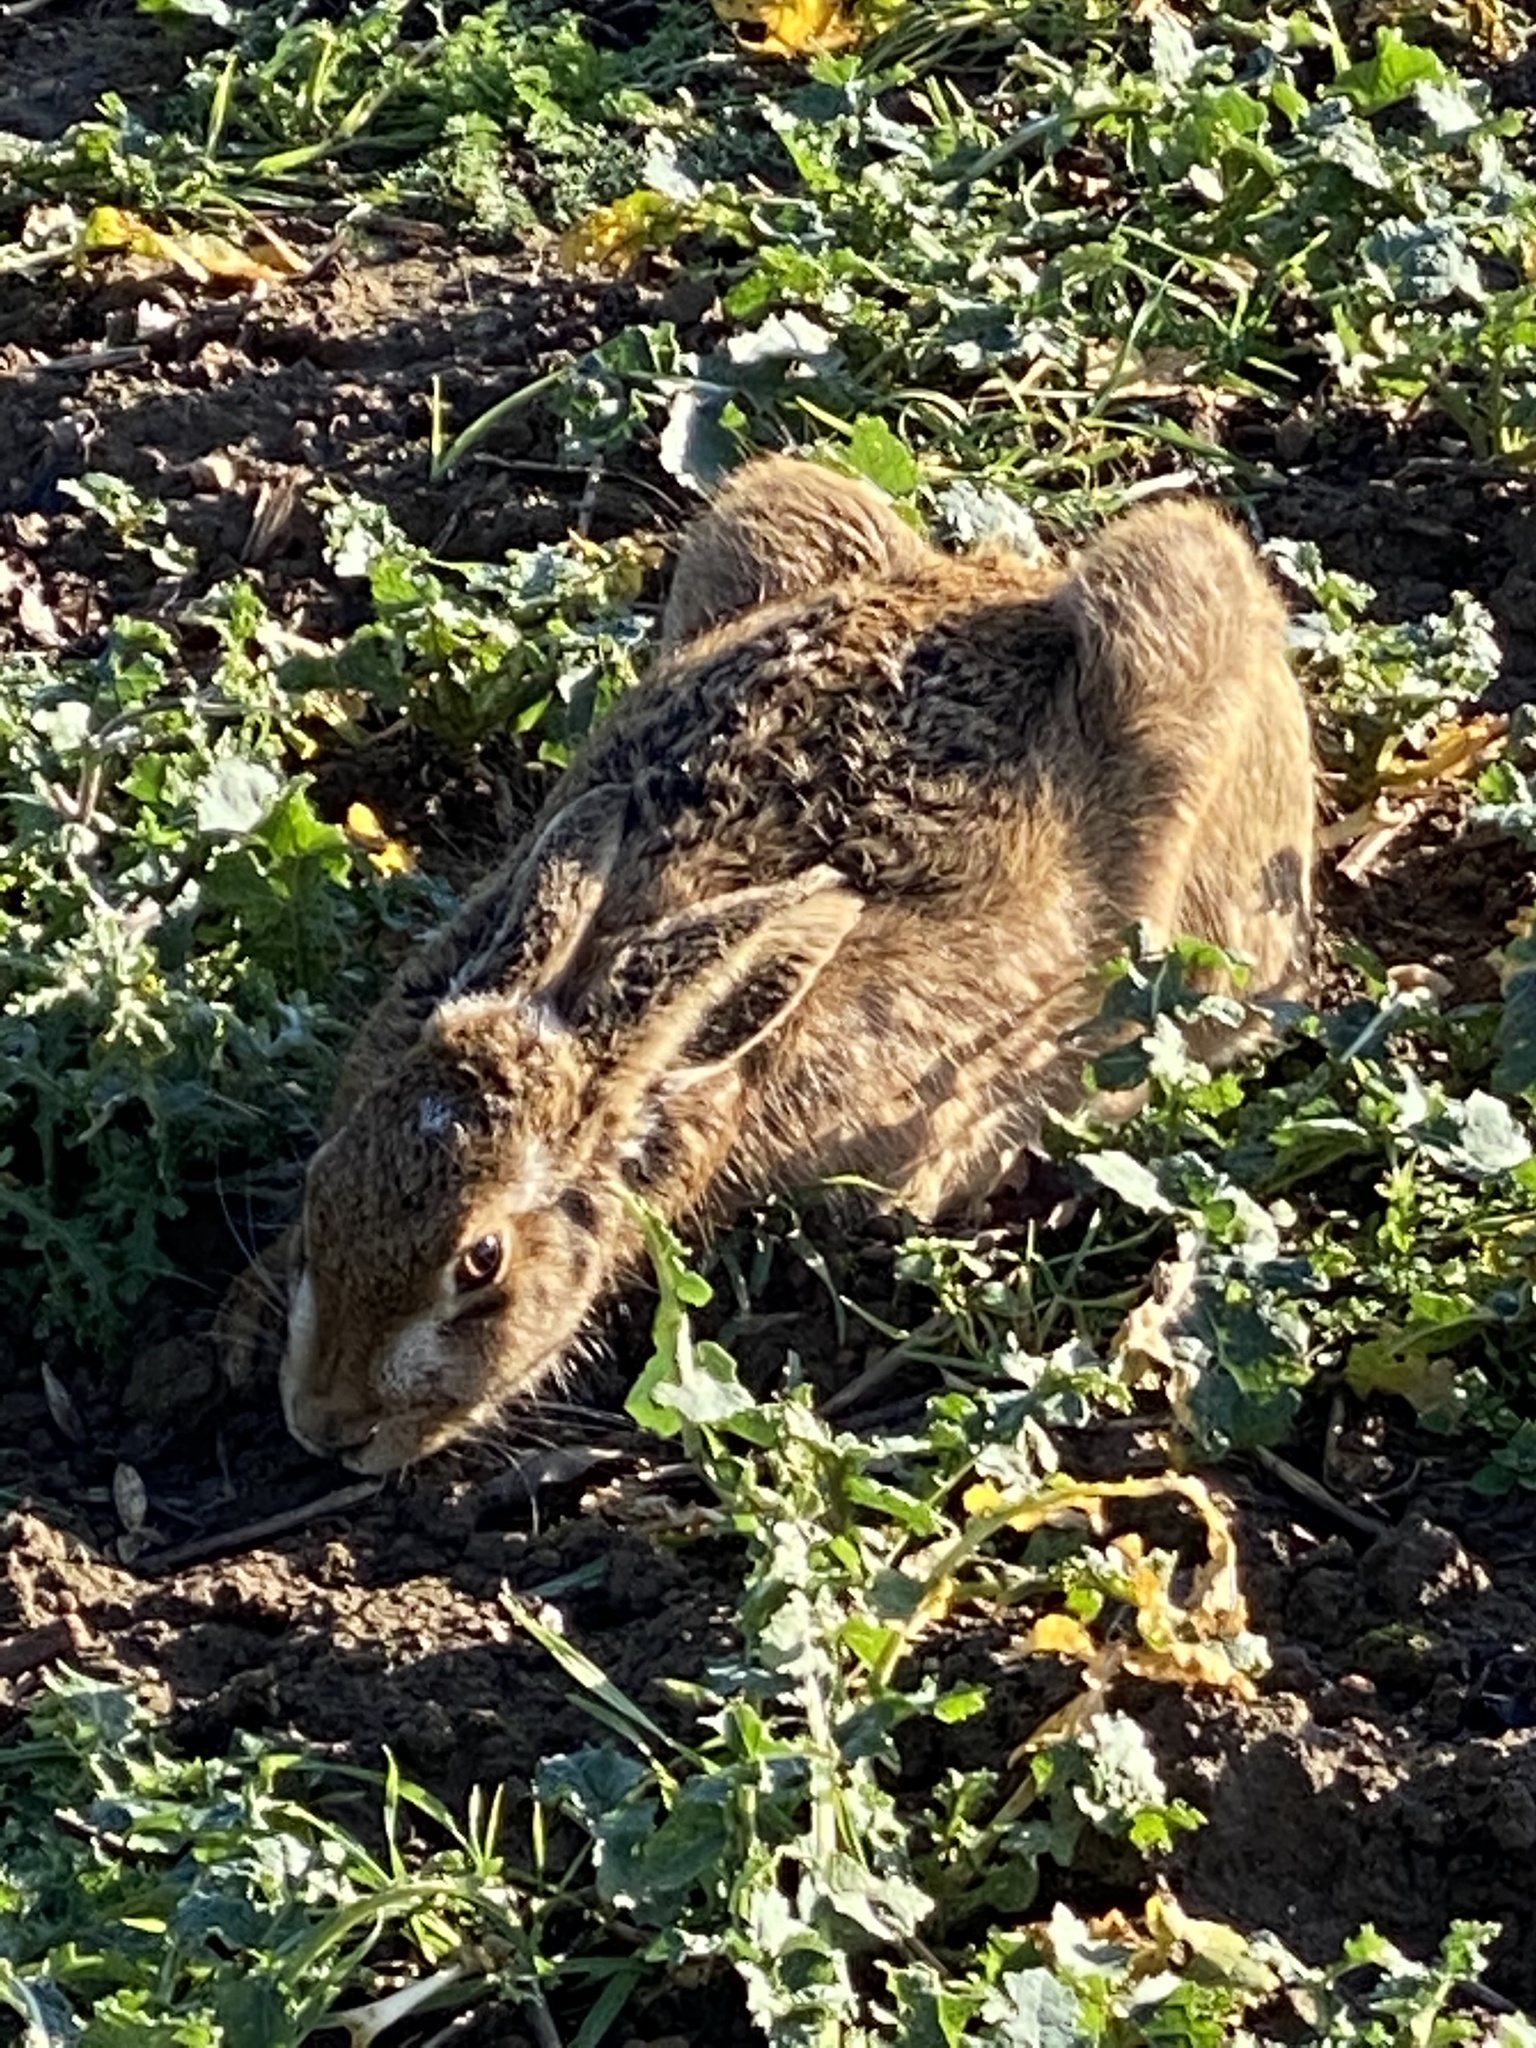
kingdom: Animalia
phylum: Chordata
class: Mammalia
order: Lagomorpha
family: Leporidae
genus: Lepus
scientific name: Lepus europaeus
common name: European hare
